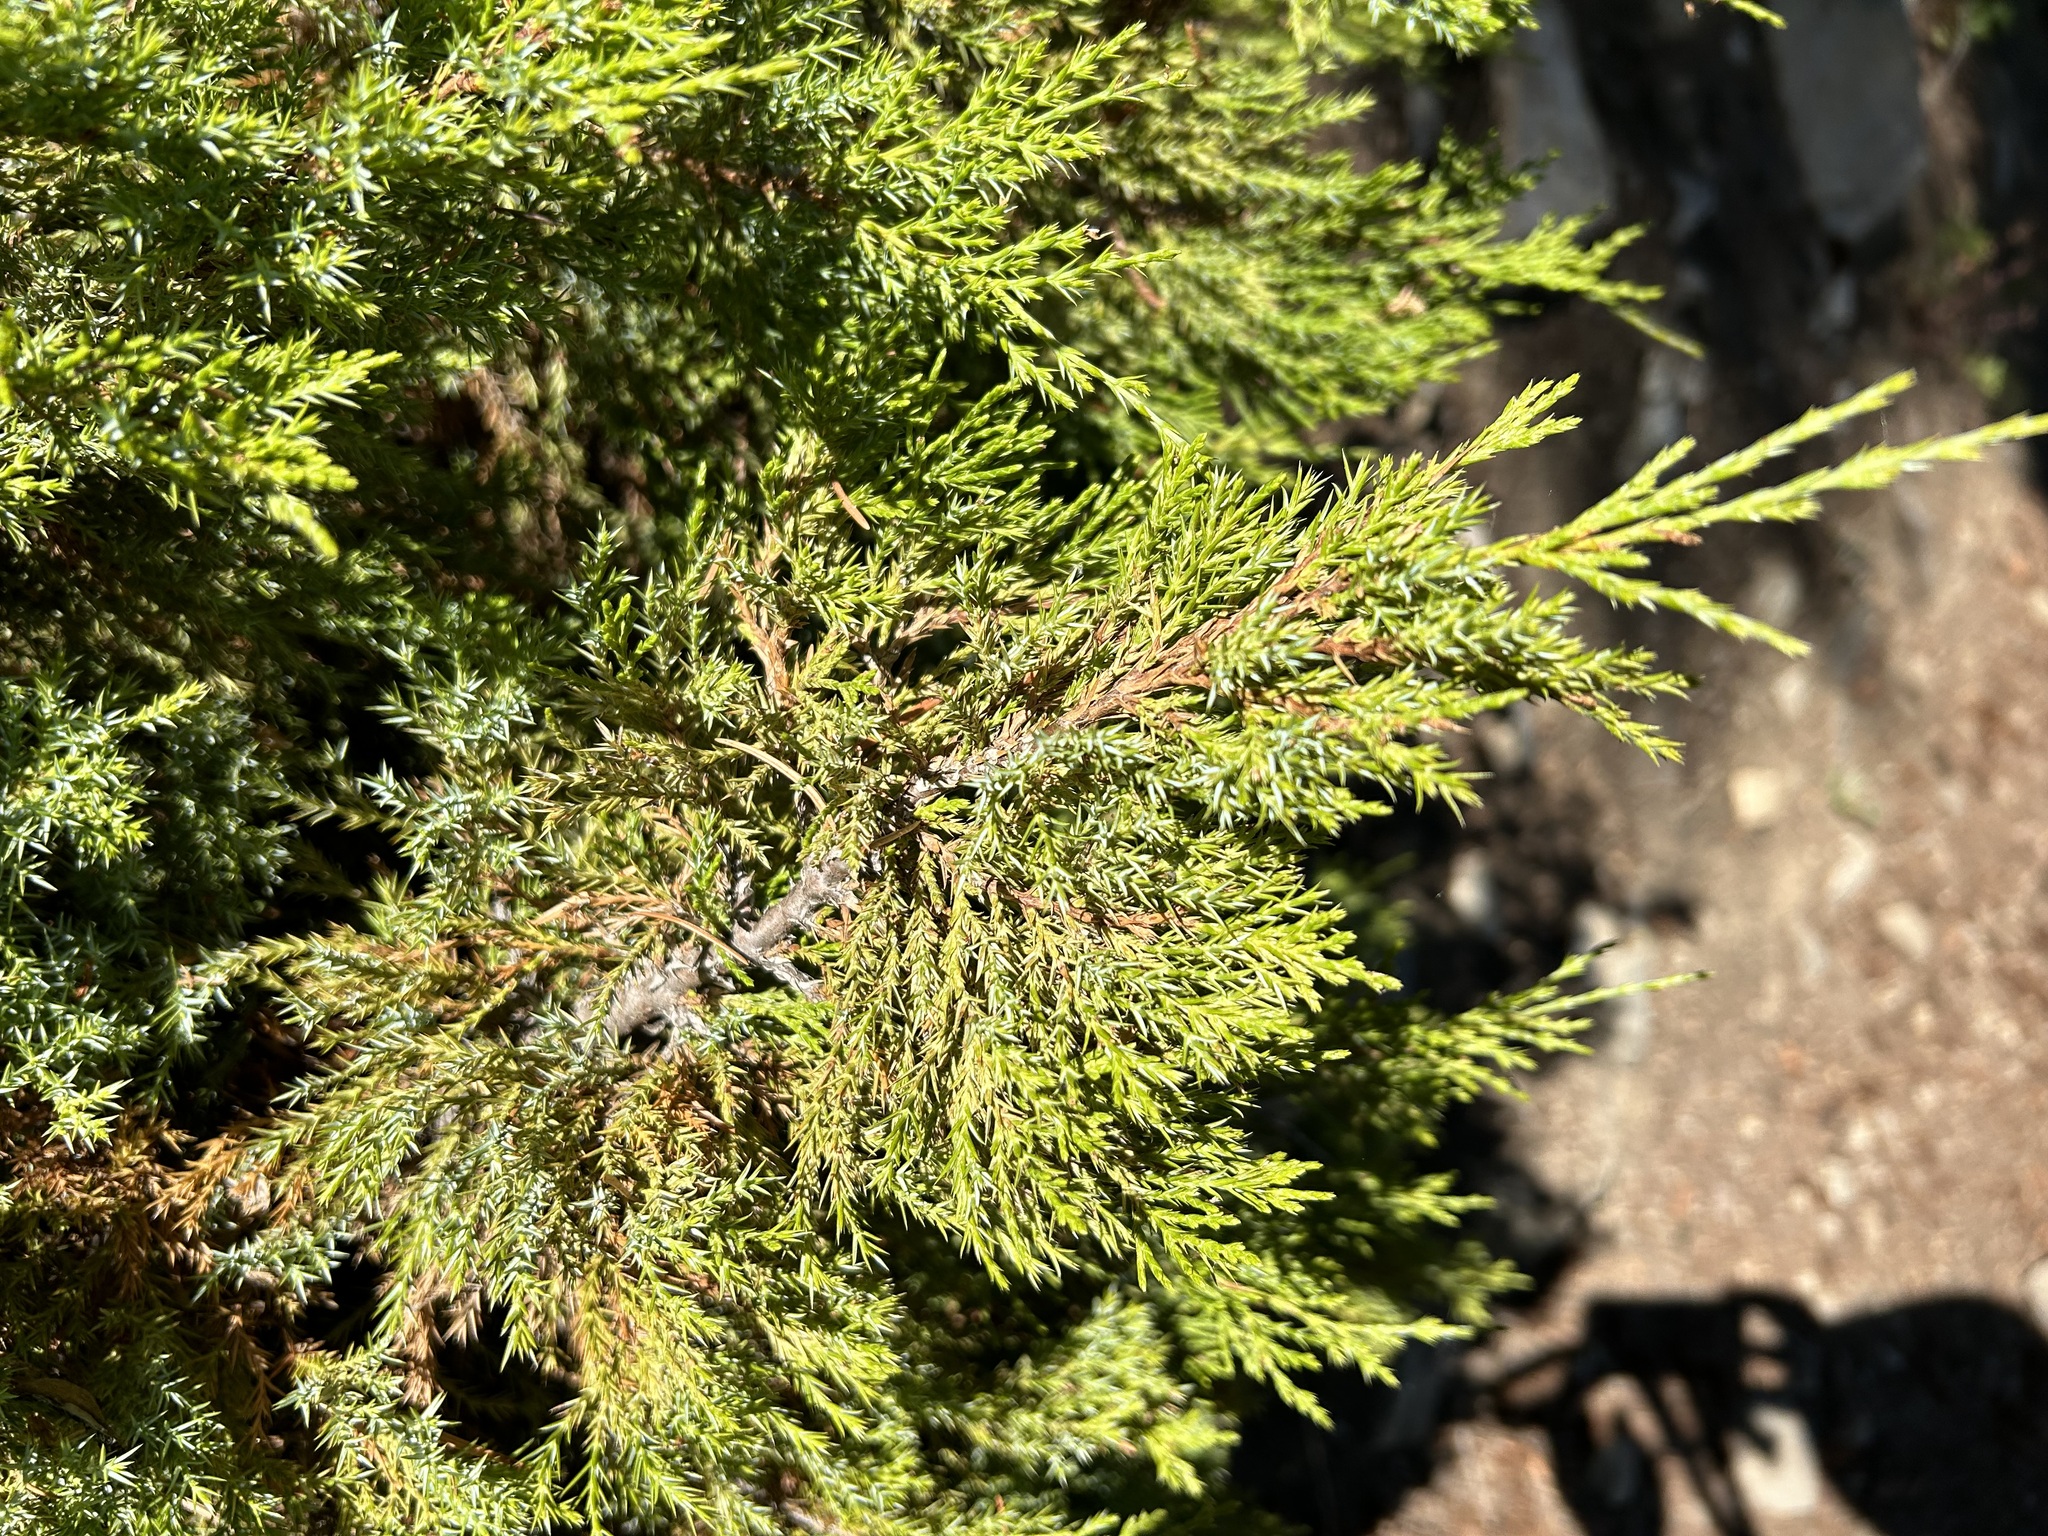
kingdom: Plantae
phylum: Tracheophyta
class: Pinopsida
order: Pinales
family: Cupressaceae
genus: Juniperus
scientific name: Juniperus scopulorum
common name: Rocky mountain juniper
